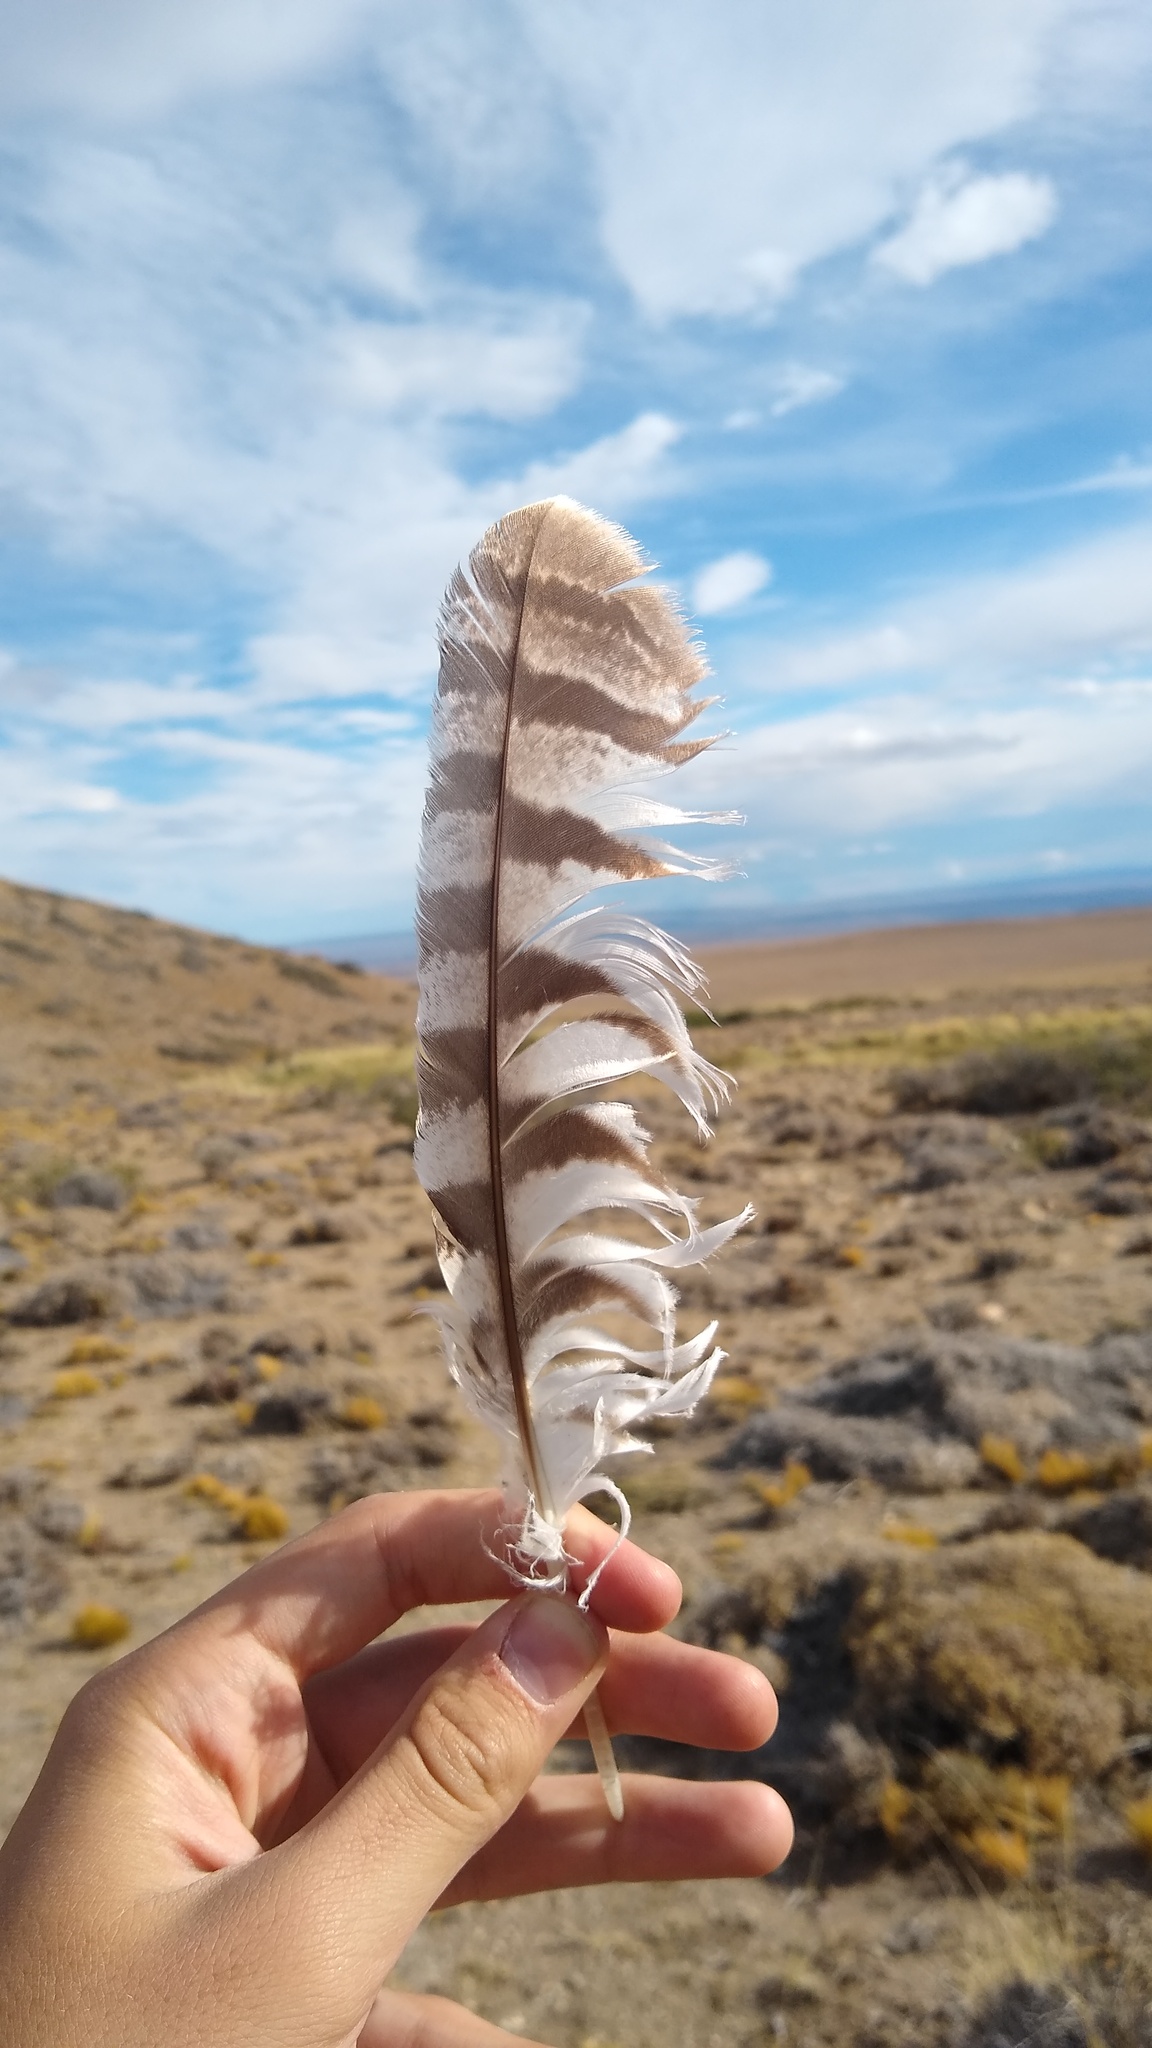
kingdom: Animalia
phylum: Chordata
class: Aves
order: Strigiformes
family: Strigidae
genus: Bubo
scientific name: Bubo magellanicus
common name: Lesser horned owl
